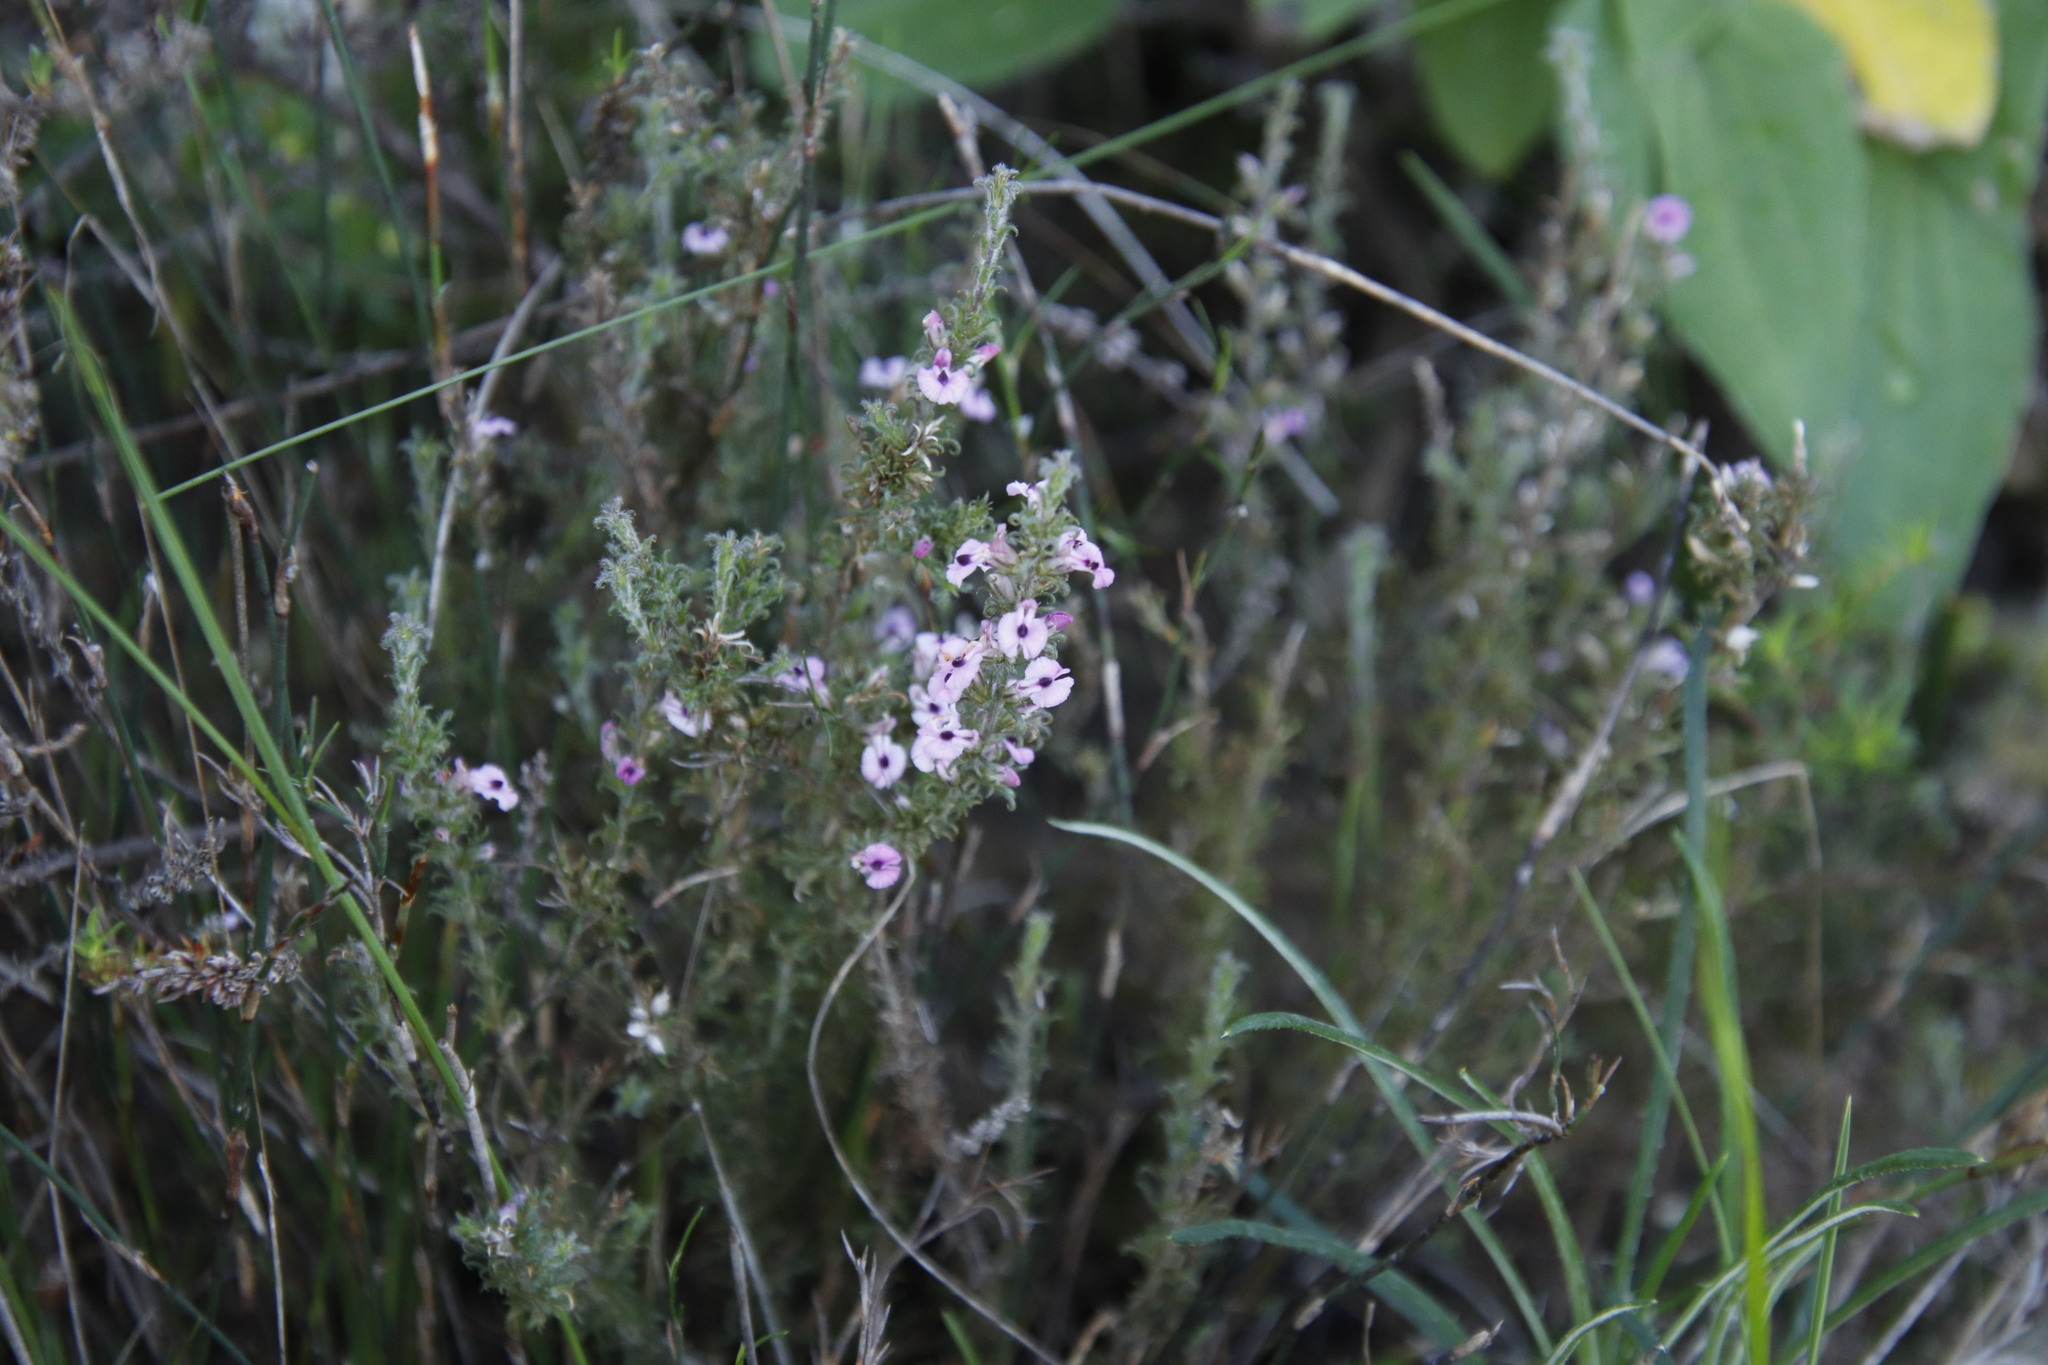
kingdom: Plantae
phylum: Tracheophyta
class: Magnoliopsida
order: Fabales
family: Polygalaceae
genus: Muraltia
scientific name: Muraltia rubeacea
